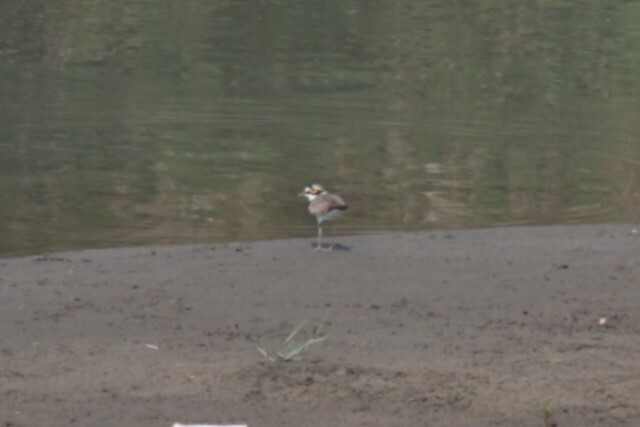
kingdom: Animalia
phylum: Chordata
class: Aves
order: Charadriiformes
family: Charadriidae
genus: Charadrius
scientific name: Charadrius dubius
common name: Little ringed plover
